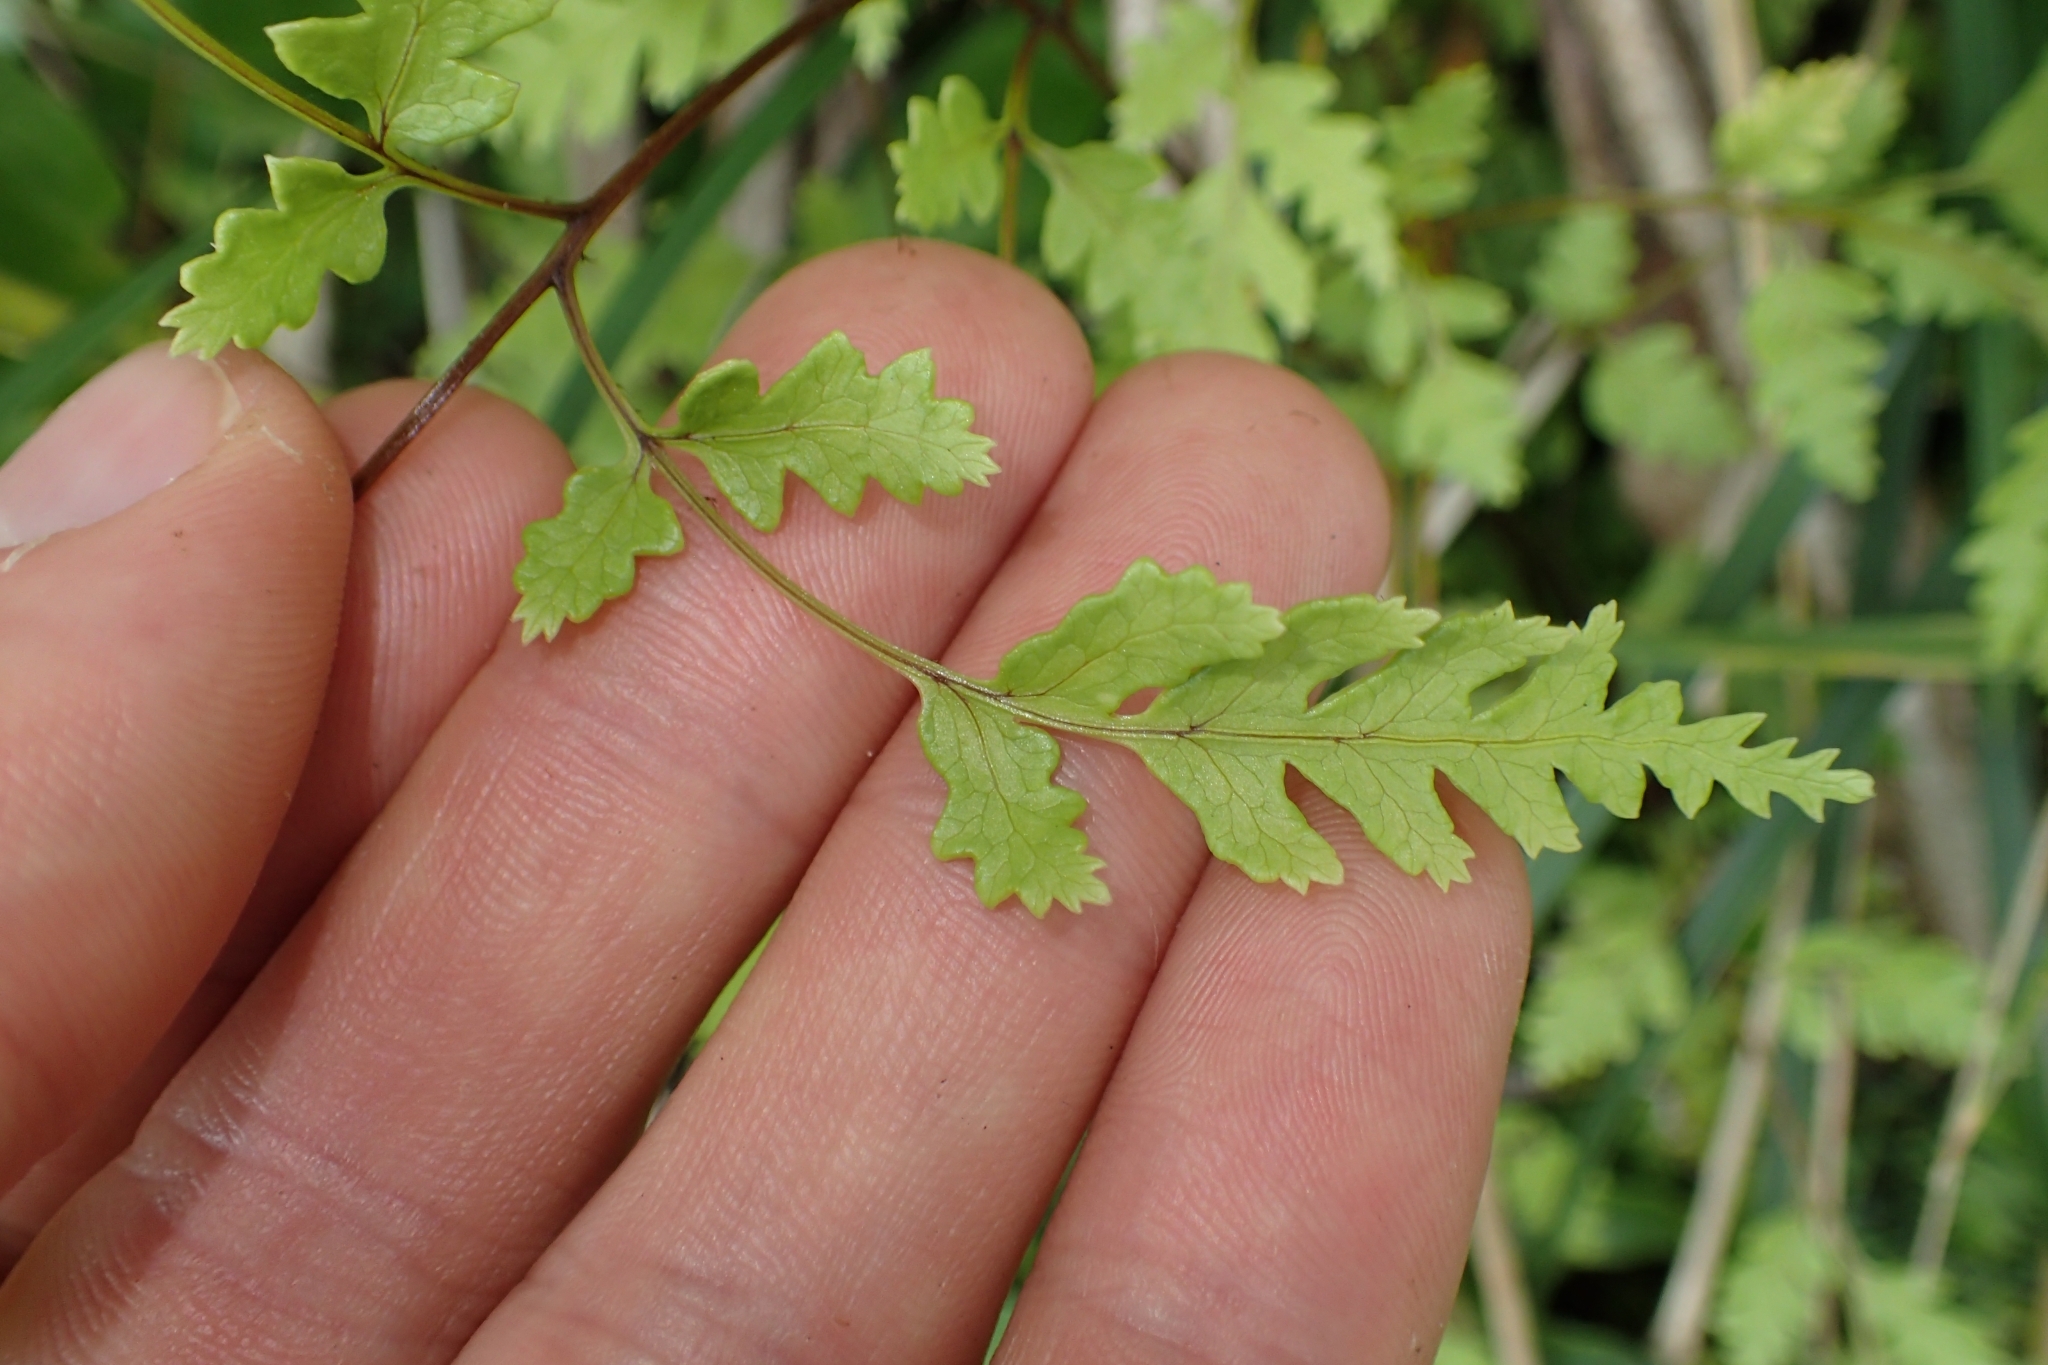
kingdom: Plantae
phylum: Tracheophyta
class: Polypodiopsida
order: Polypodiales
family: Pteridaceae
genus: Pteris
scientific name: Pteris saxatilis
